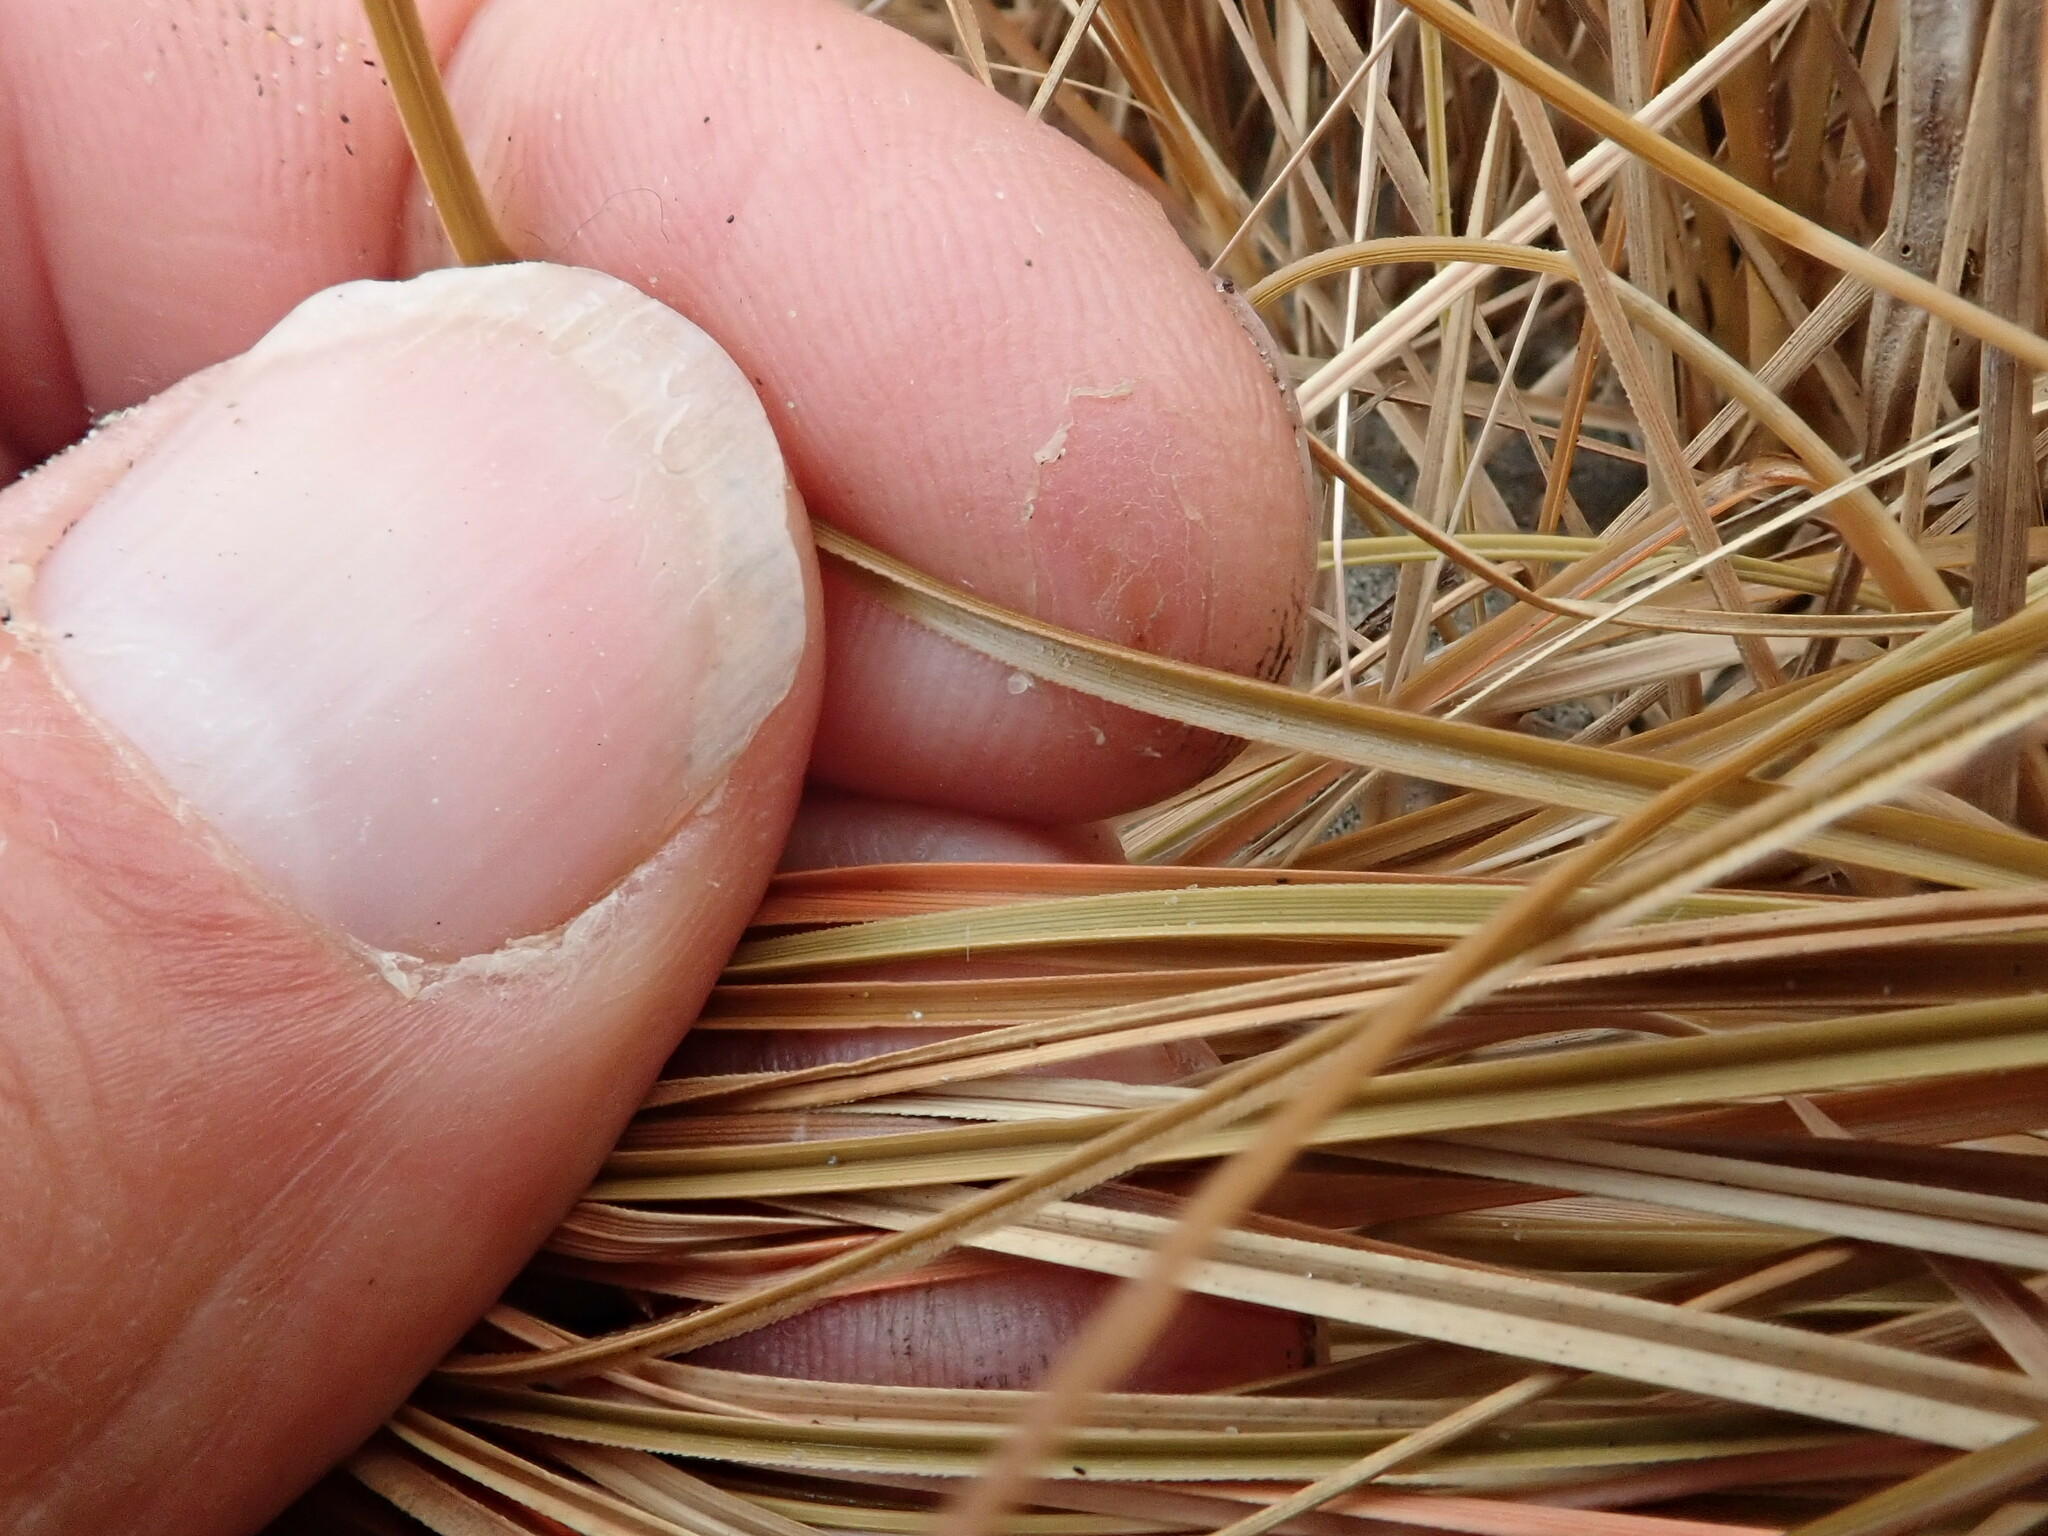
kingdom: Plantae
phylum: Tracheophyta
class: Liliopsida
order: Poales
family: Cyperaceae
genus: Carex
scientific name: Carex testacea
